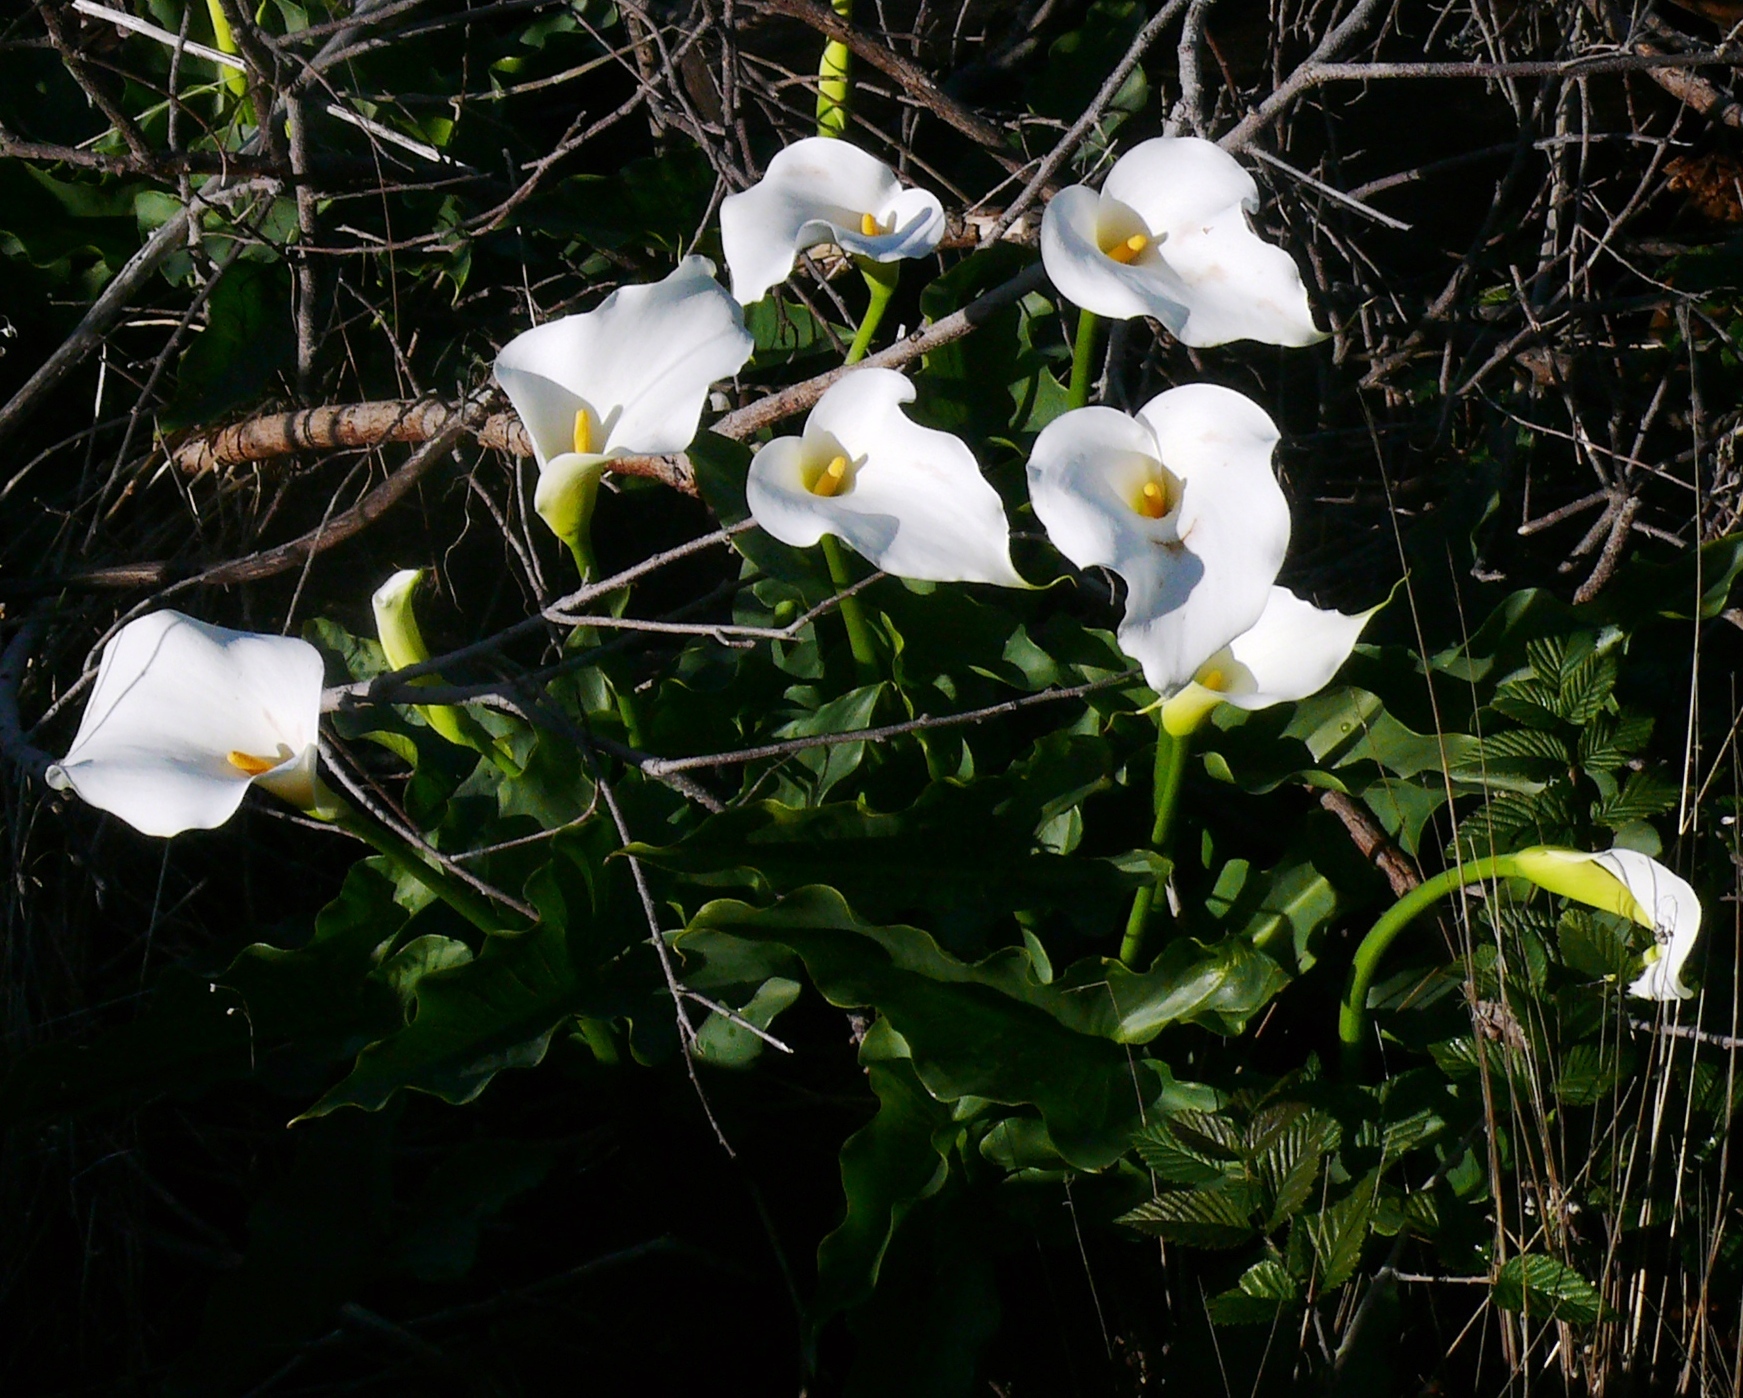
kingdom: Plantae
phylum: Tracheophyta
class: Liliopsida
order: Alismatales
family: Araceae
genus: Zantedeschia
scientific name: Zantedeschia aethiopica
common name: Altar-lily
